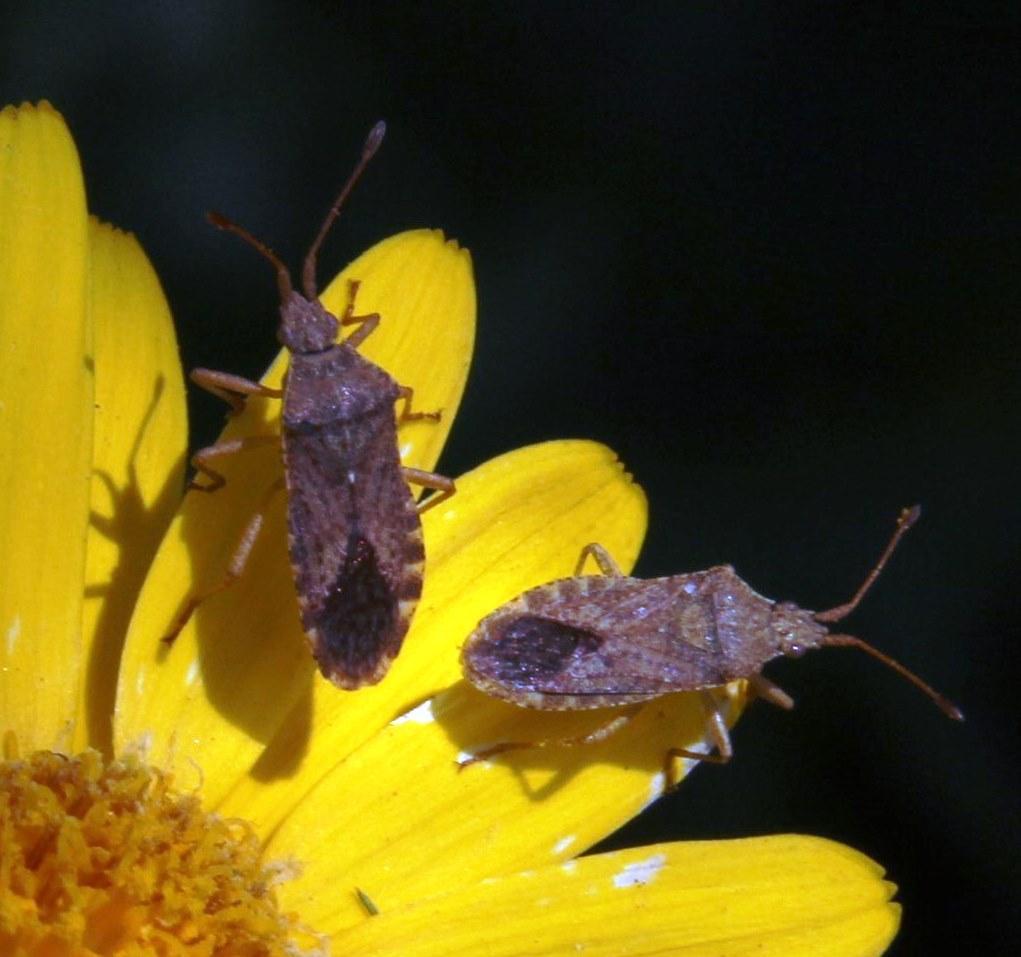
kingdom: Animalia
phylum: Arthropoda
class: Insecta
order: Hemiptera
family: Coreidae
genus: Althos
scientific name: Althos
